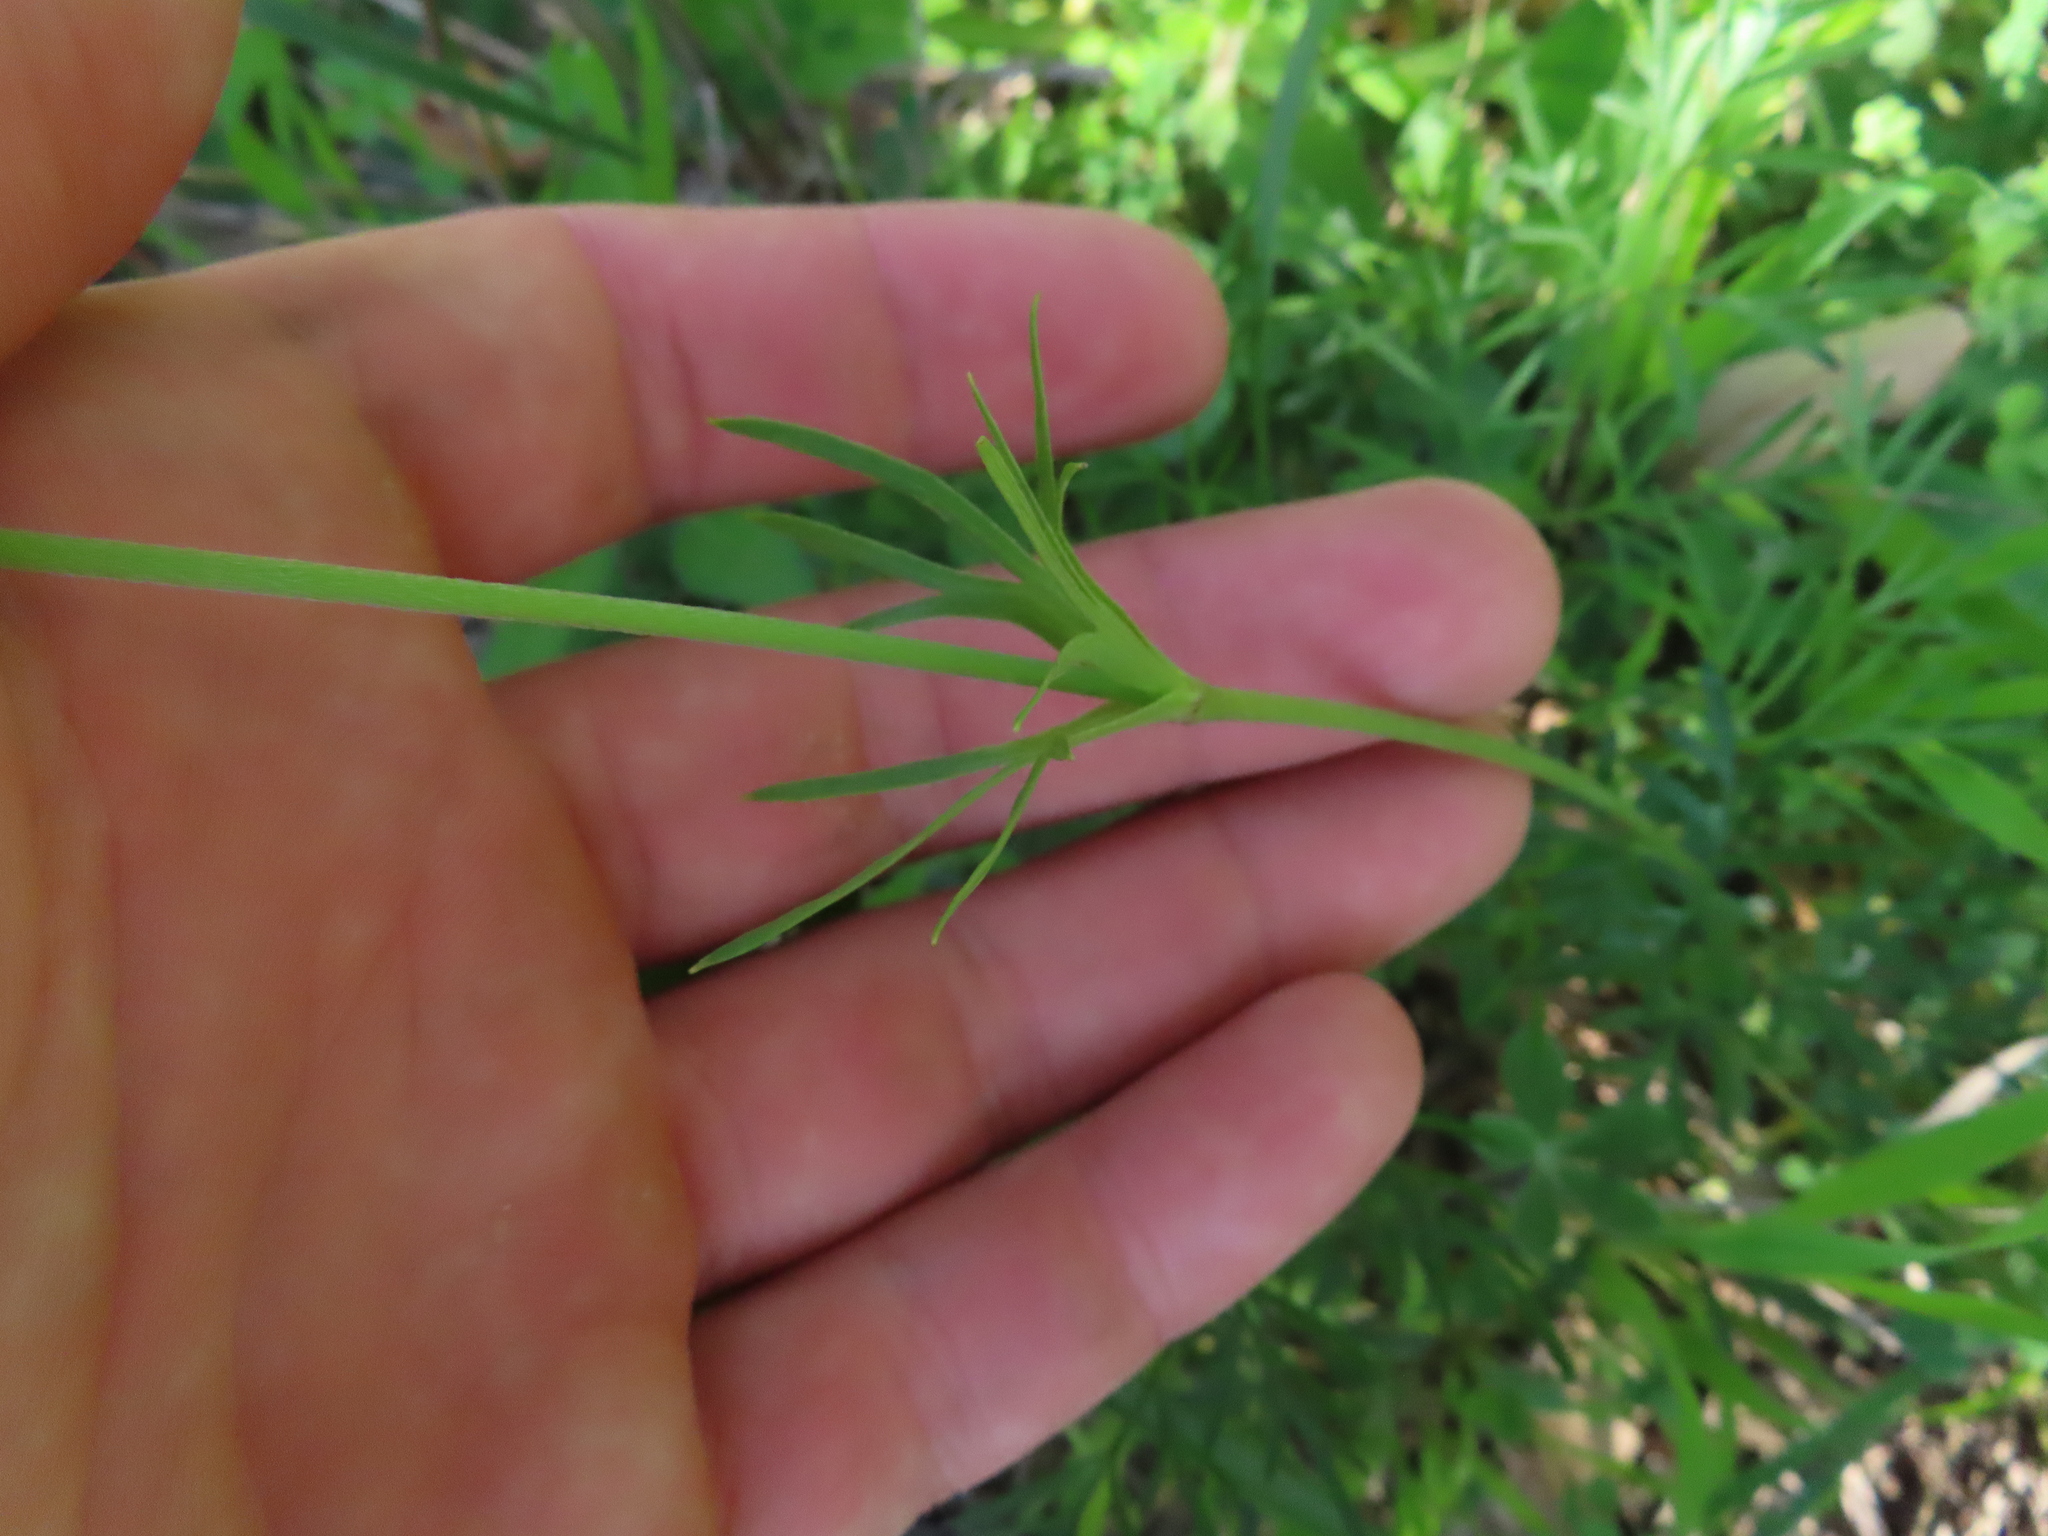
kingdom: Plantae
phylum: Tracheophyta
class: Magnoliopsida
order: Ranunculales
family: Ranunculaceae
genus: Anemone
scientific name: Anemone berlandieri
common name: Ten-petal anemone
